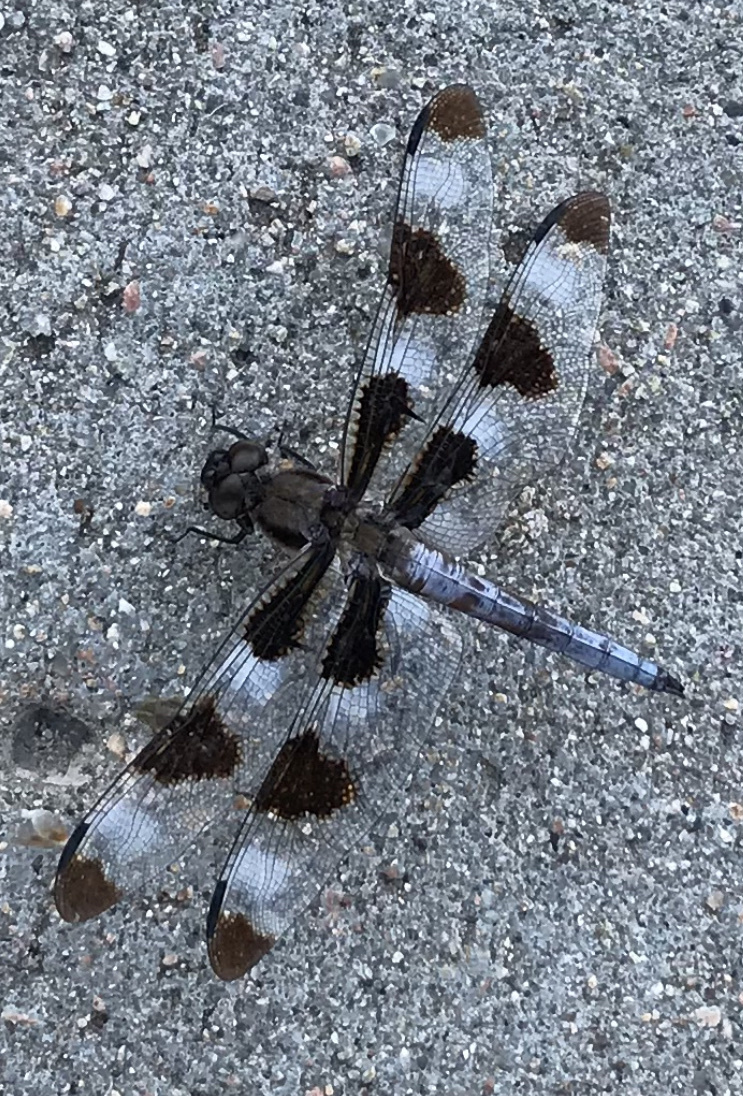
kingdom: Animalia
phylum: Arthropoda
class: Insecta
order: Odonata
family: Libellulidae
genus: Libellula
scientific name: Libellula pulchella
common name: Twelve-spotted skimmer
